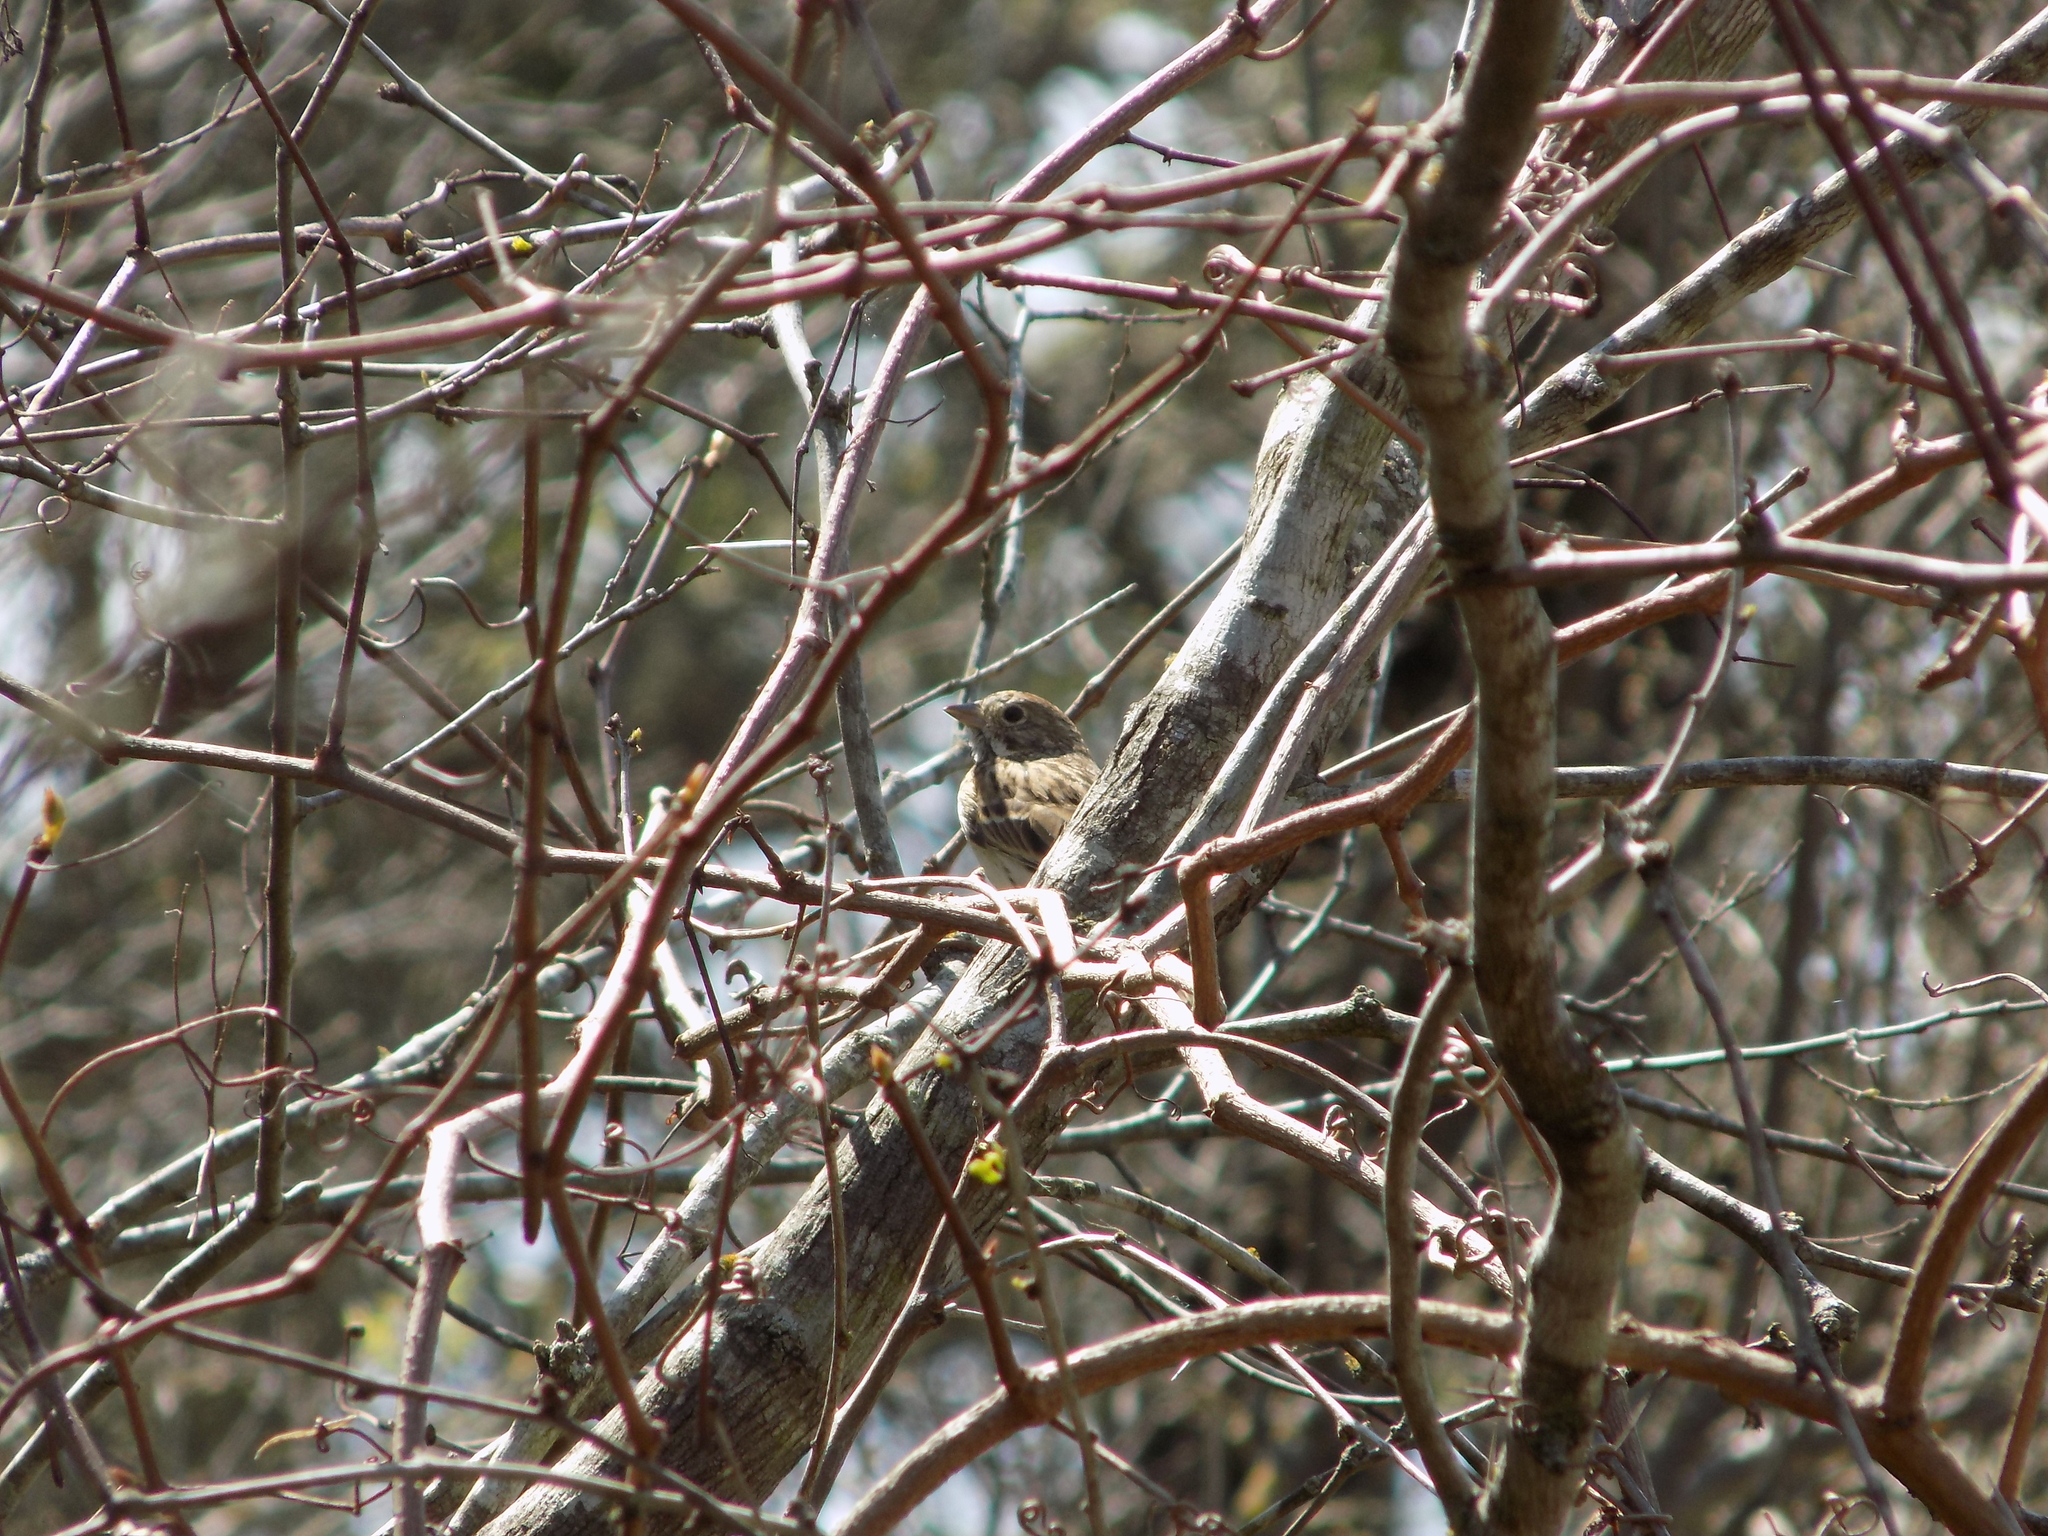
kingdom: Animalia
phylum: Chordata
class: Aves
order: Passeriformes
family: Passerellidae
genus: Pooecetes
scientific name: Pooecetes gramineus
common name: Vesper sparrow
